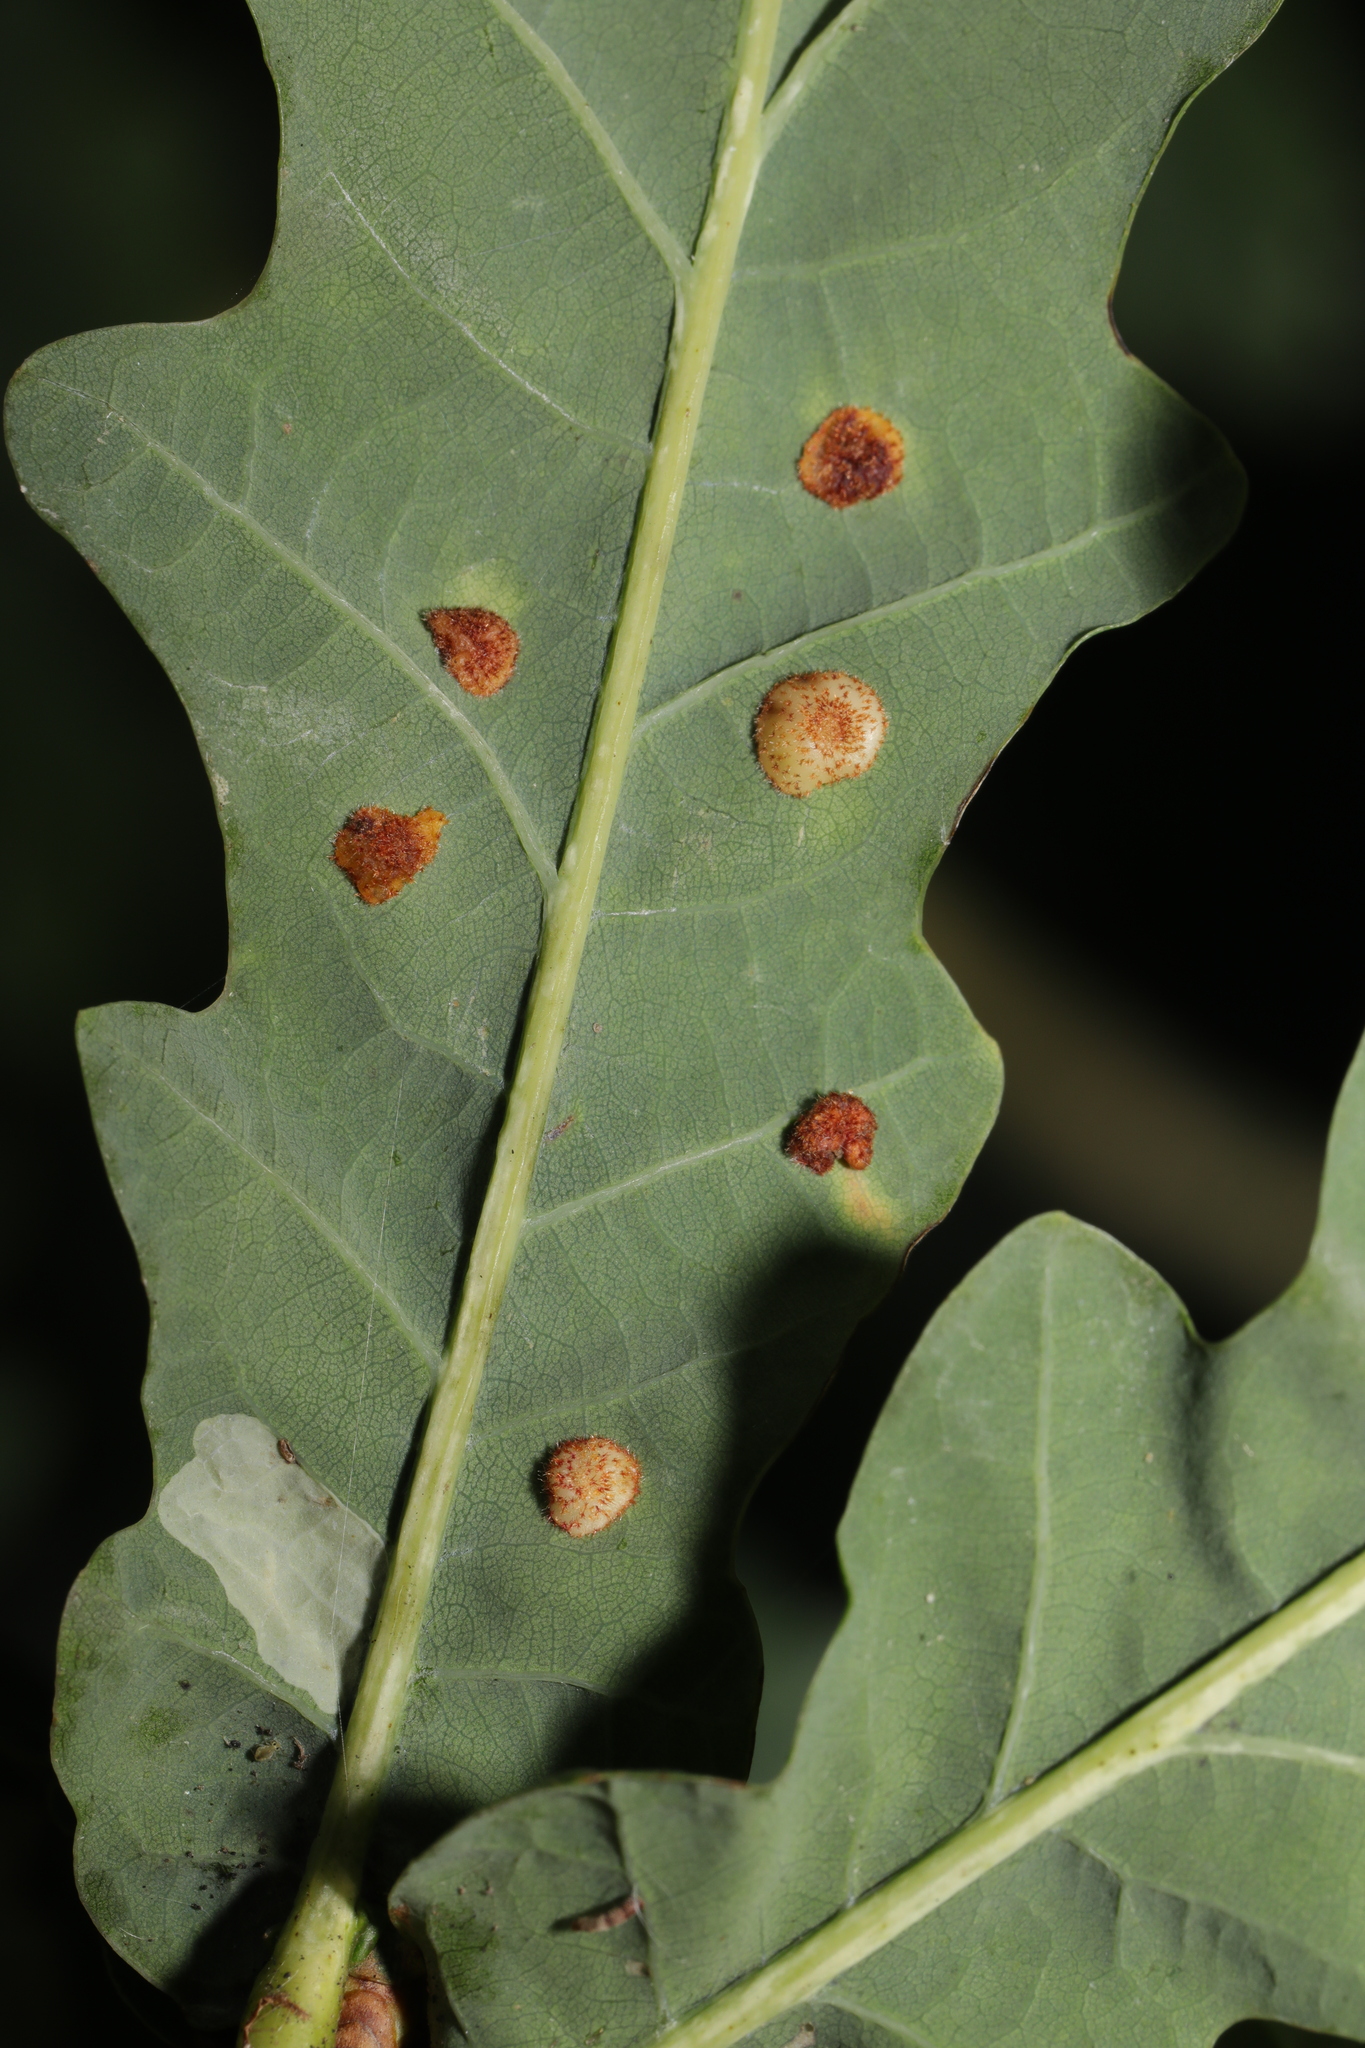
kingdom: Animalia
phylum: Arthropoda
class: Insecta
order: Hymenoptera
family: Cynipidae
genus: Neuroterus
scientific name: Neuroterus quercusbaccarum
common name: Common spangle gall
